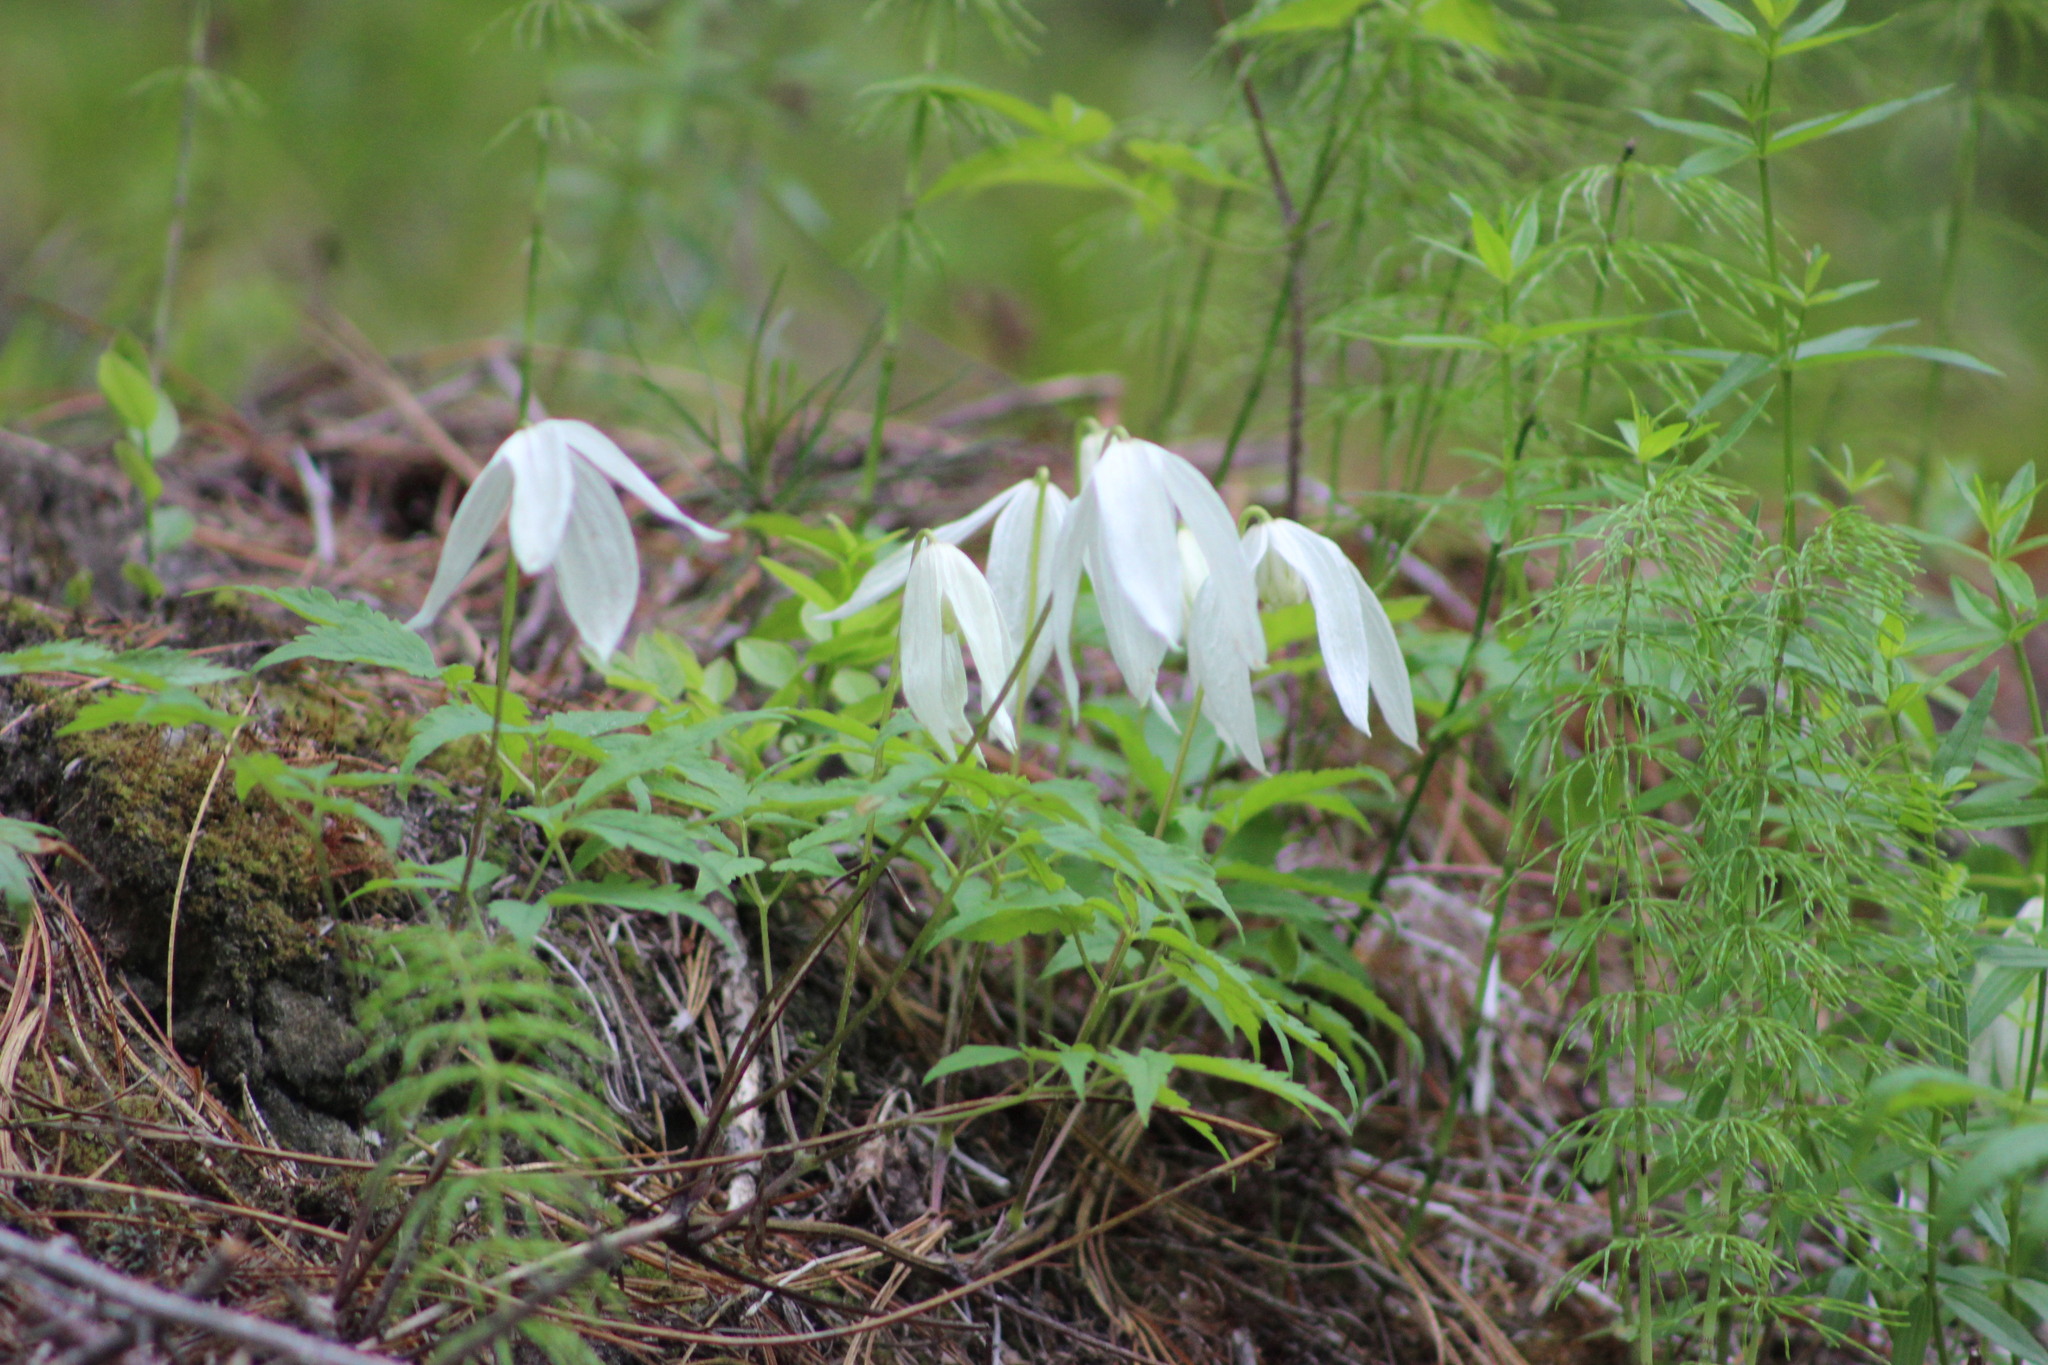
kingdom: Plantae
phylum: Tracheophyta
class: Magnoliopsida
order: Ranunculales
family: Ranunculaceae
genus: Clematis
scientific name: Clematis sibirica
